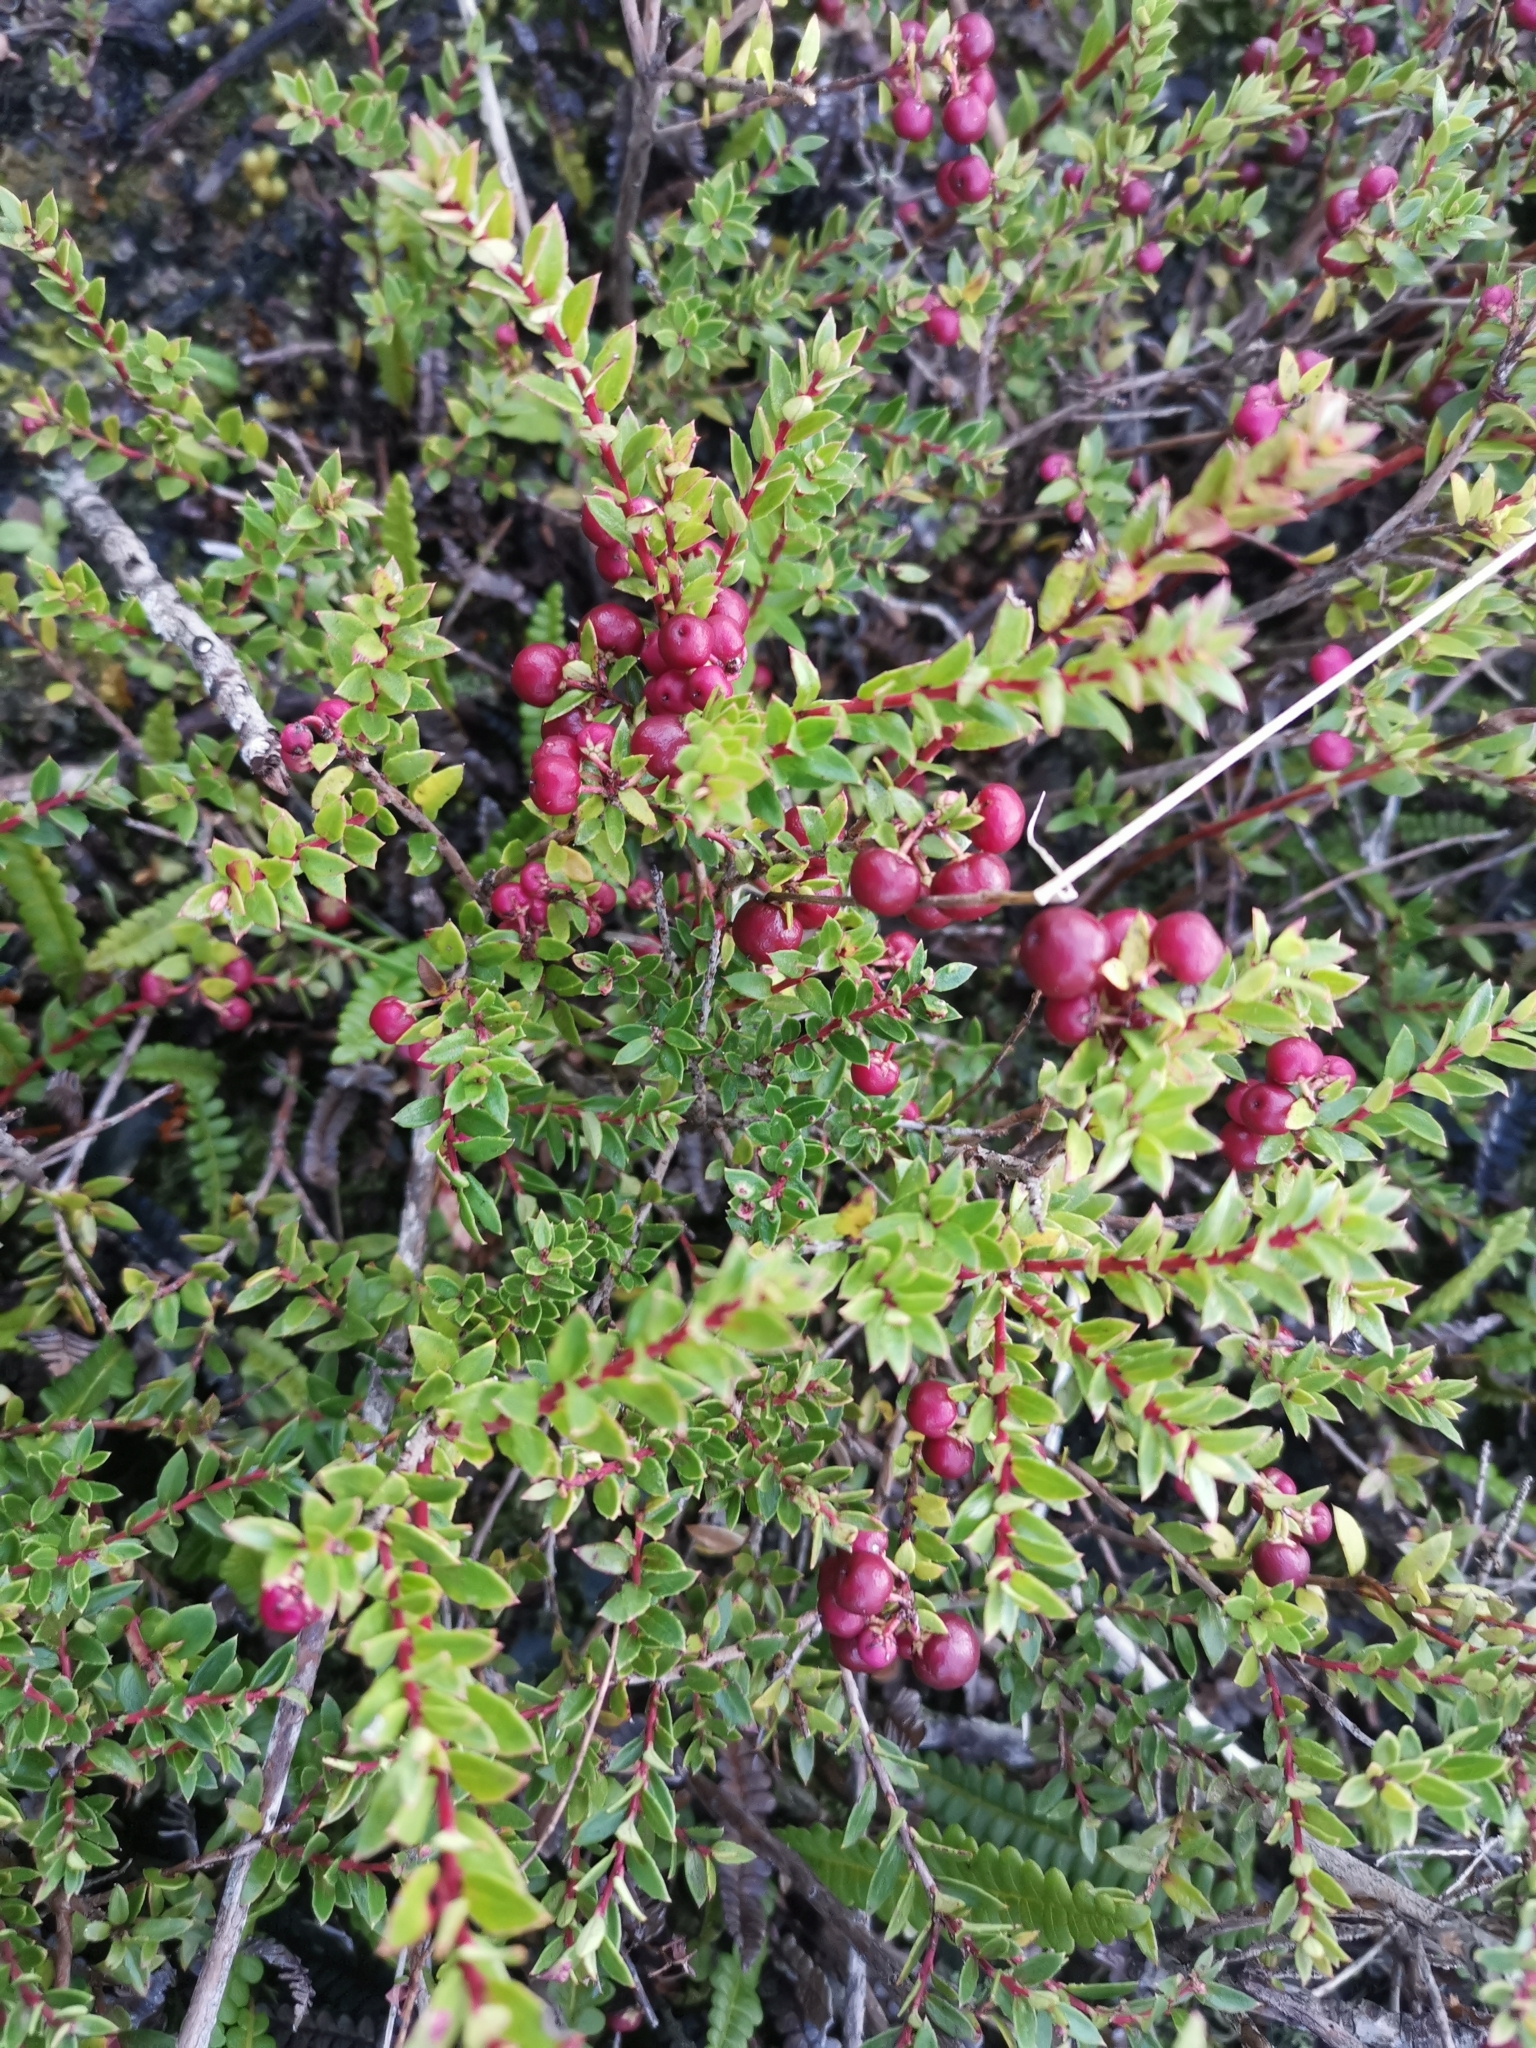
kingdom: Plantae
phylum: Tracheophyta
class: Magnoliopsida
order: Ericales
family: Ericaceae
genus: Gaultheria
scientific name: Gaultheria mucronata
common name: Prickly heath
